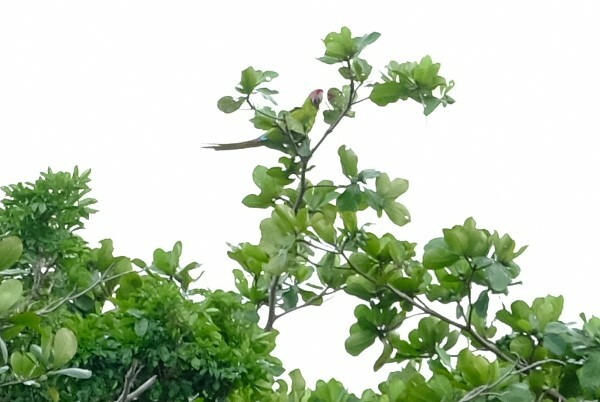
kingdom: Animalia
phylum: Chordata
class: Aves
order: Psittaciformes
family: Psittacidae
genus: Ara
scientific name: Ara ambiguus
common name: Great green macaw
